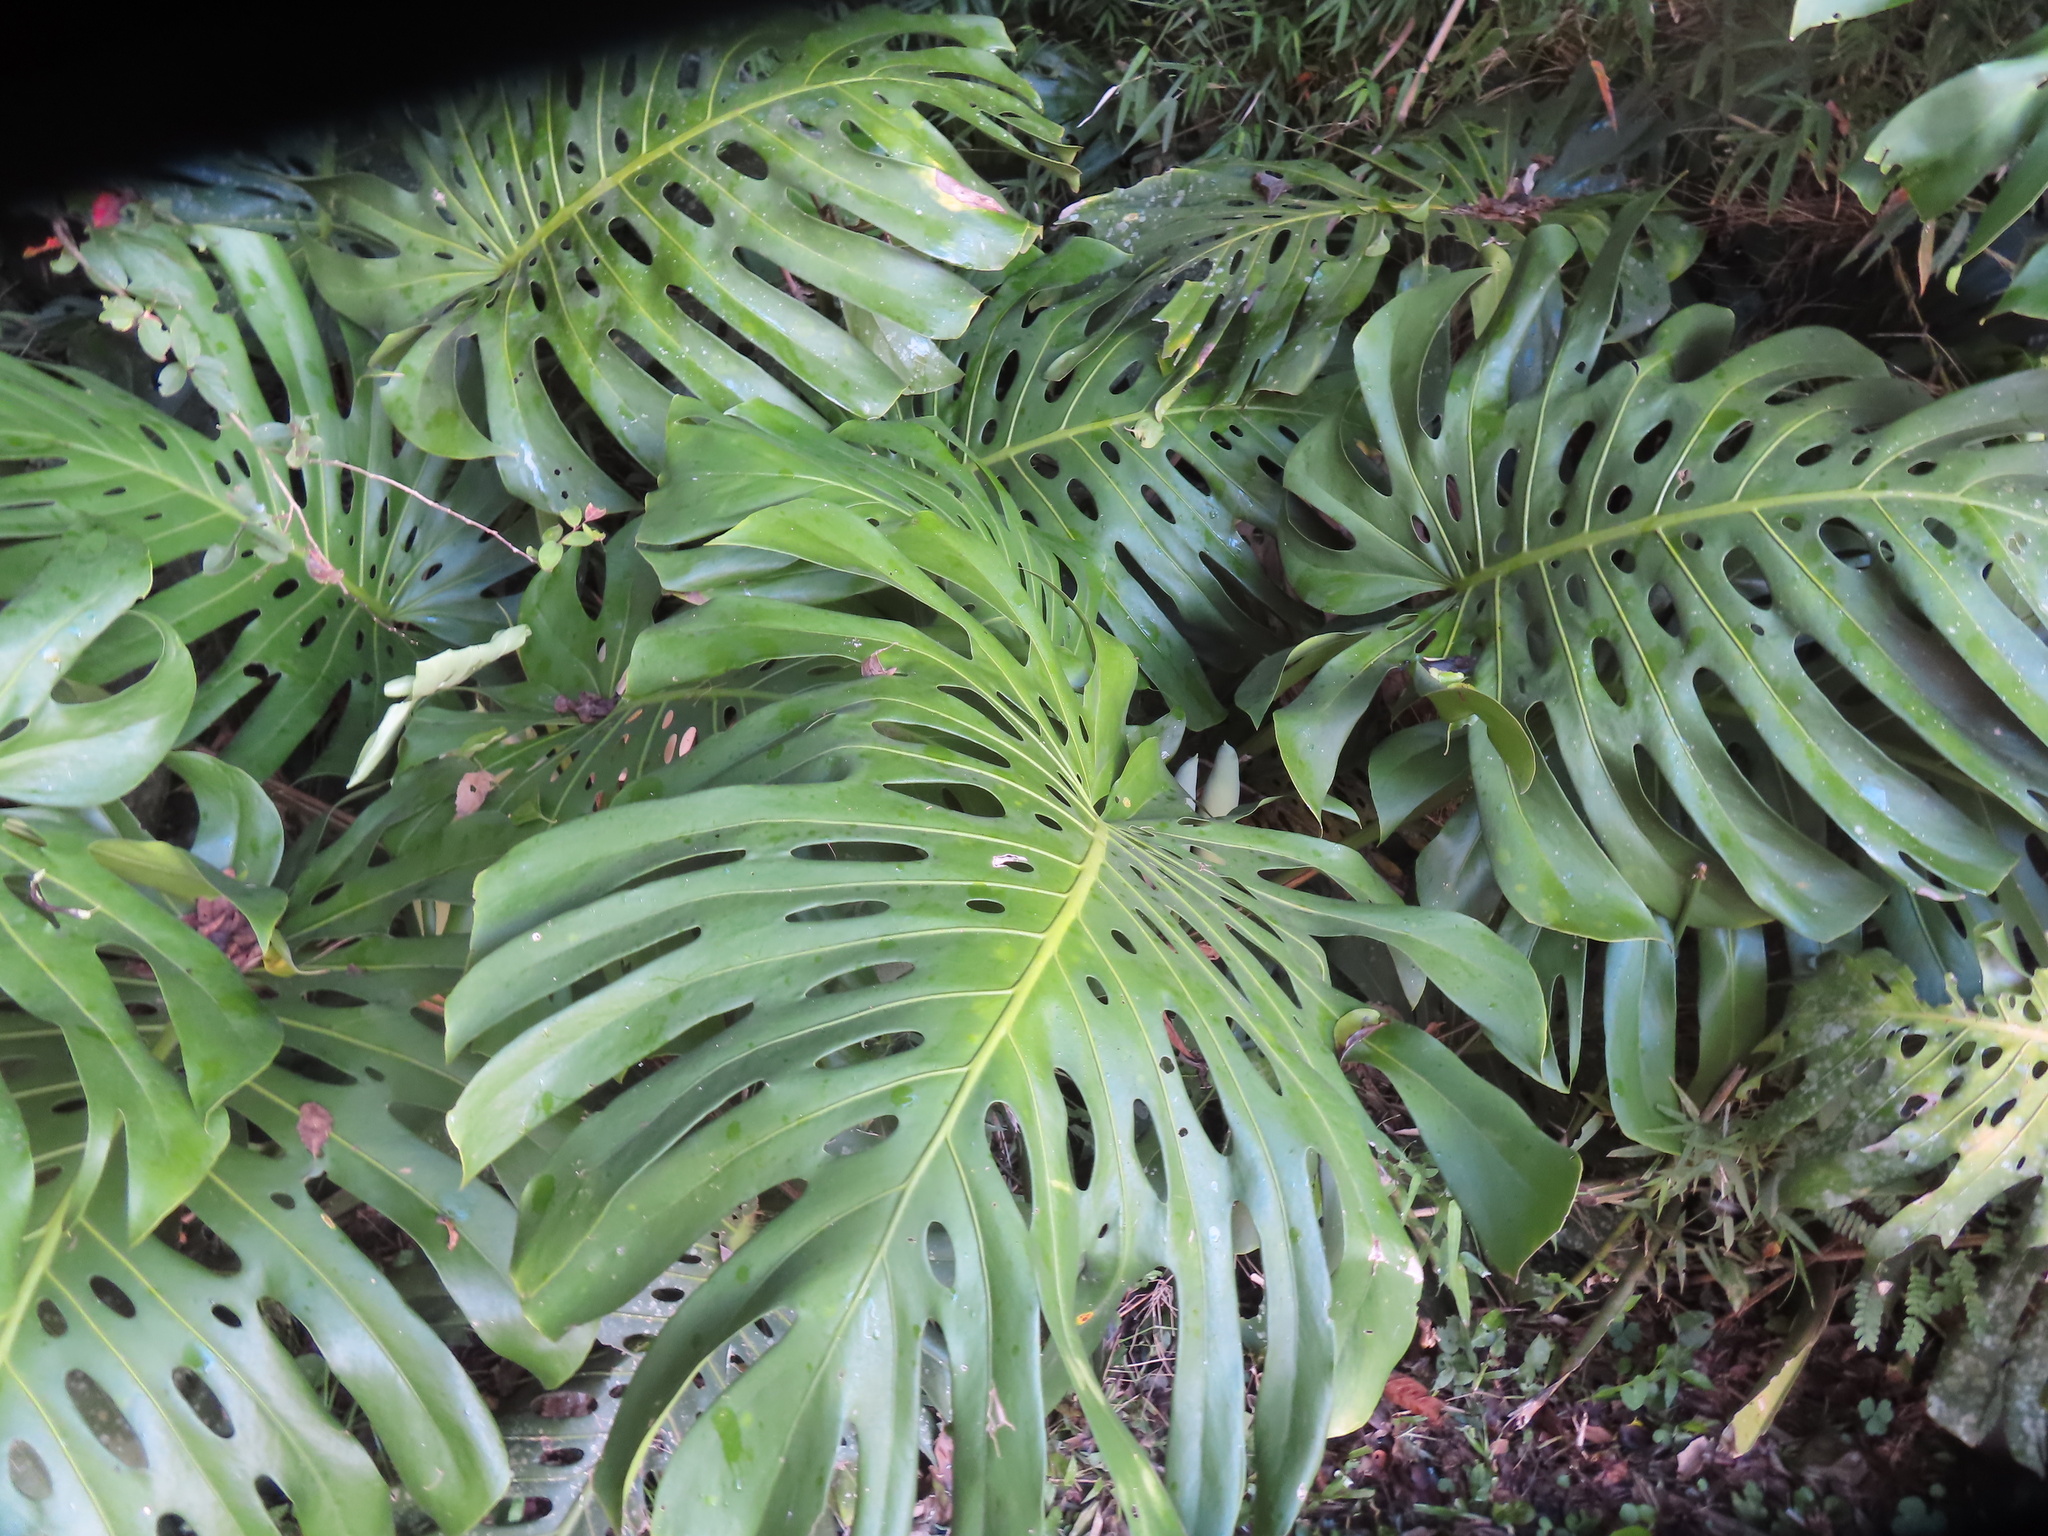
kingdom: Plantae
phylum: Tracheophyta
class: Liliopsida
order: Alismatales
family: Araceae
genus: Monstera
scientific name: Monstera deliciosa
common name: Cut-leaf-philodendron
